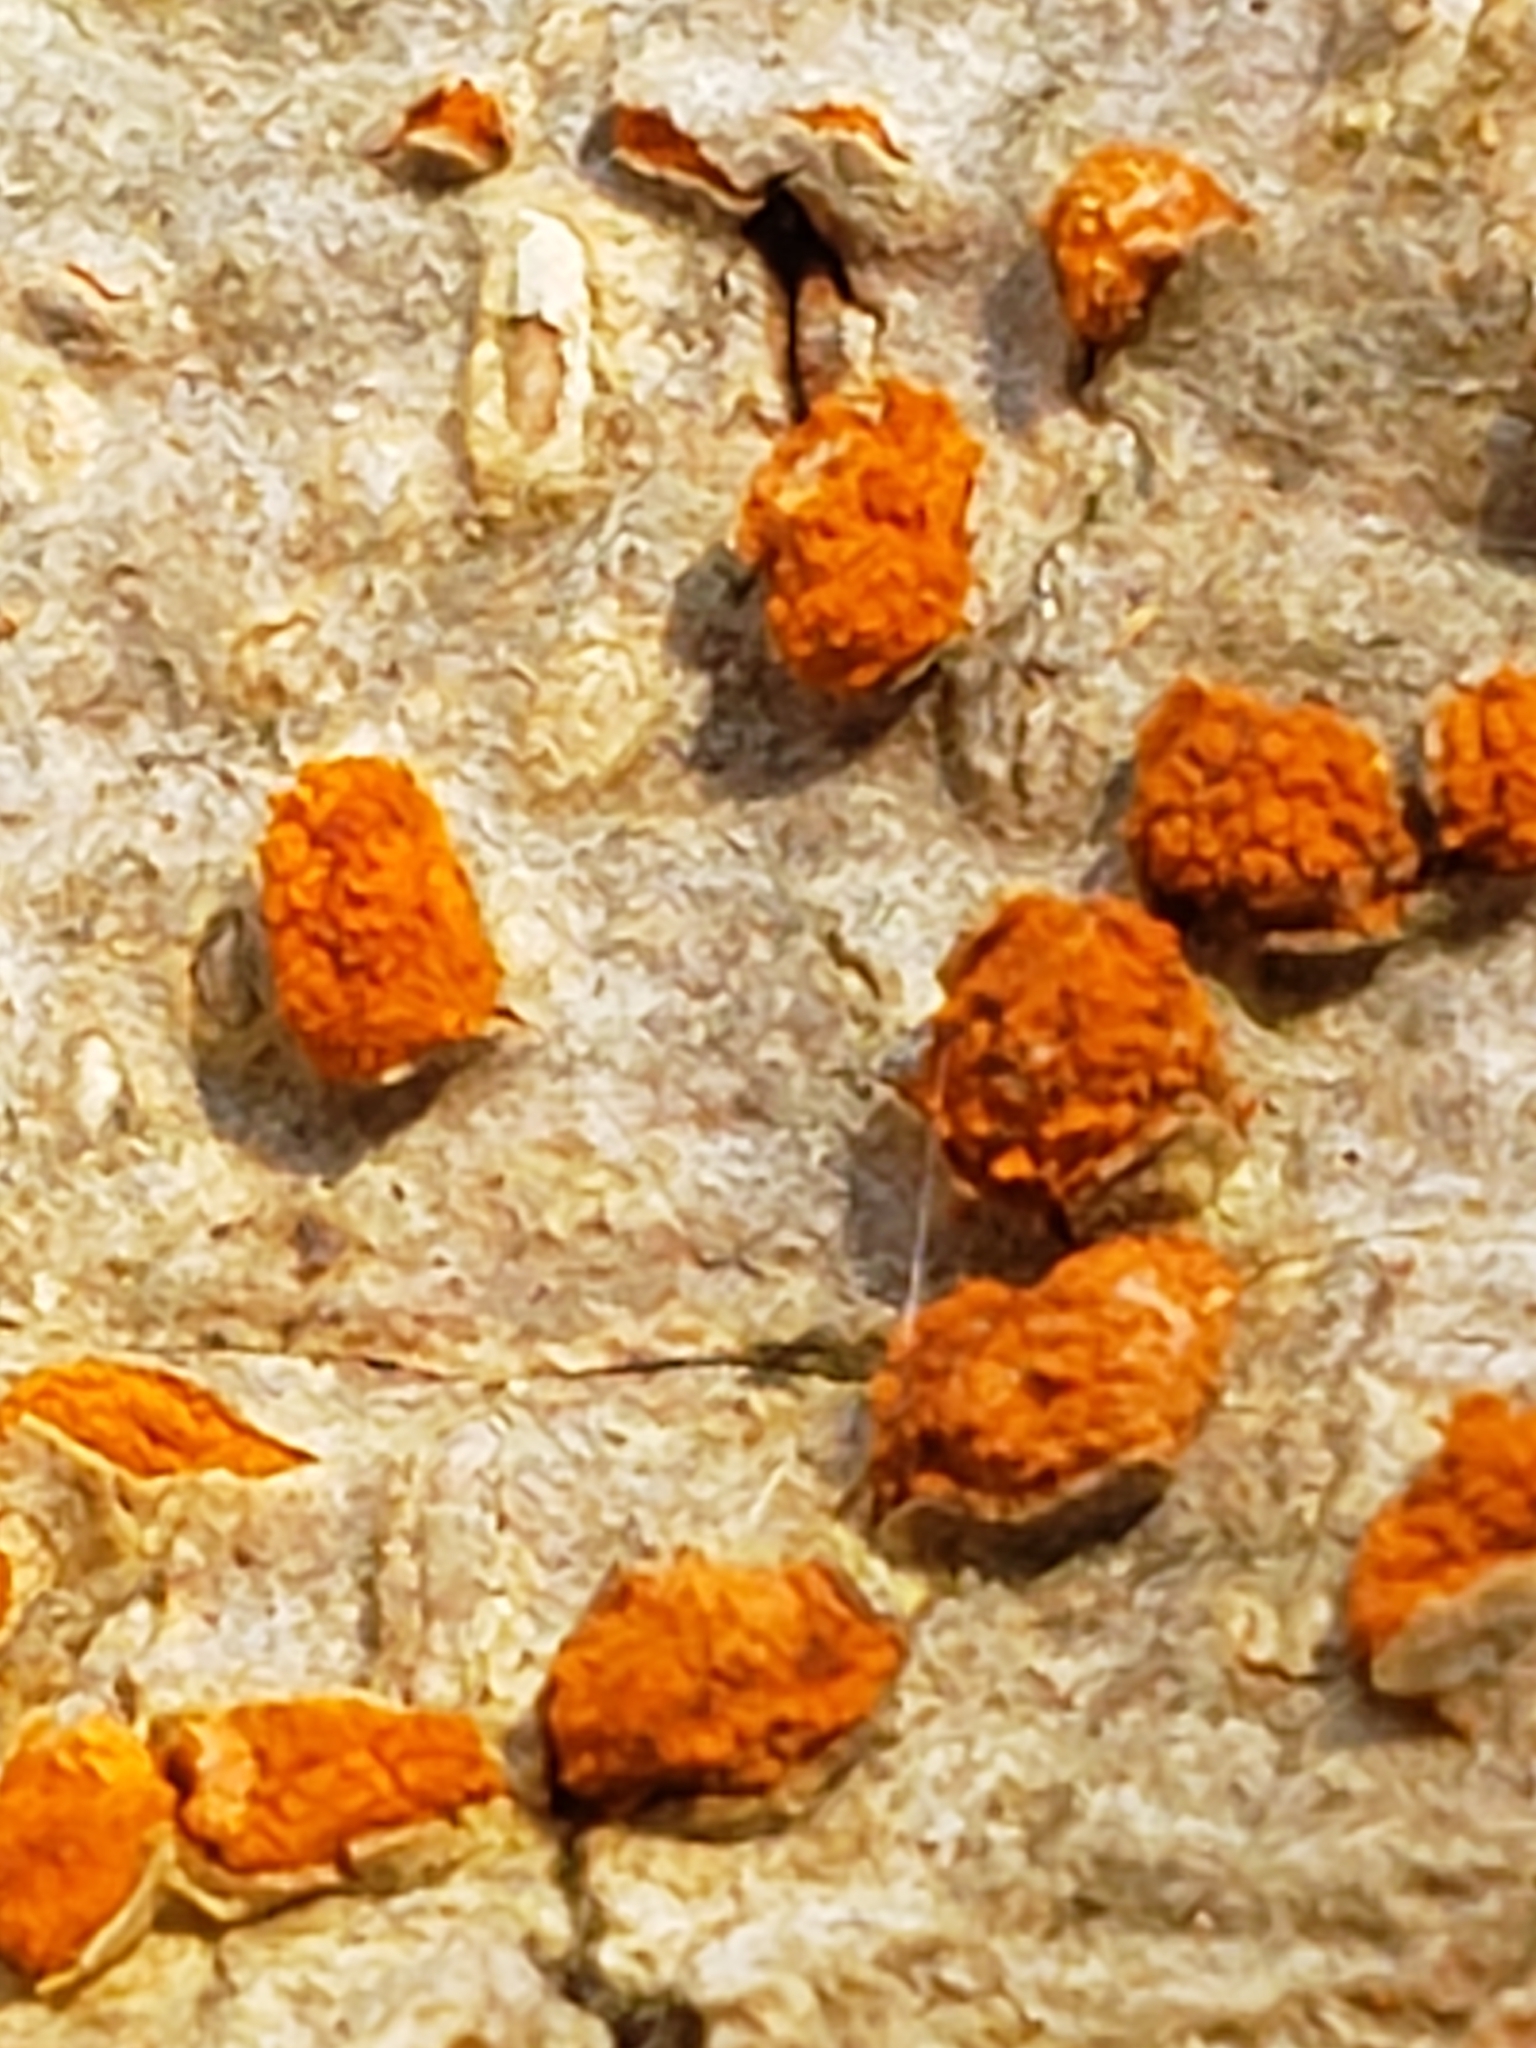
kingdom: Fungi
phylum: Ascomycota
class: Sordariomycetes
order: Diaporthales
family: Cryphonectriaceae
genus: Amphilogia
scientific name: Amphilogia gyrosa
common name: Orange hobnail canker
